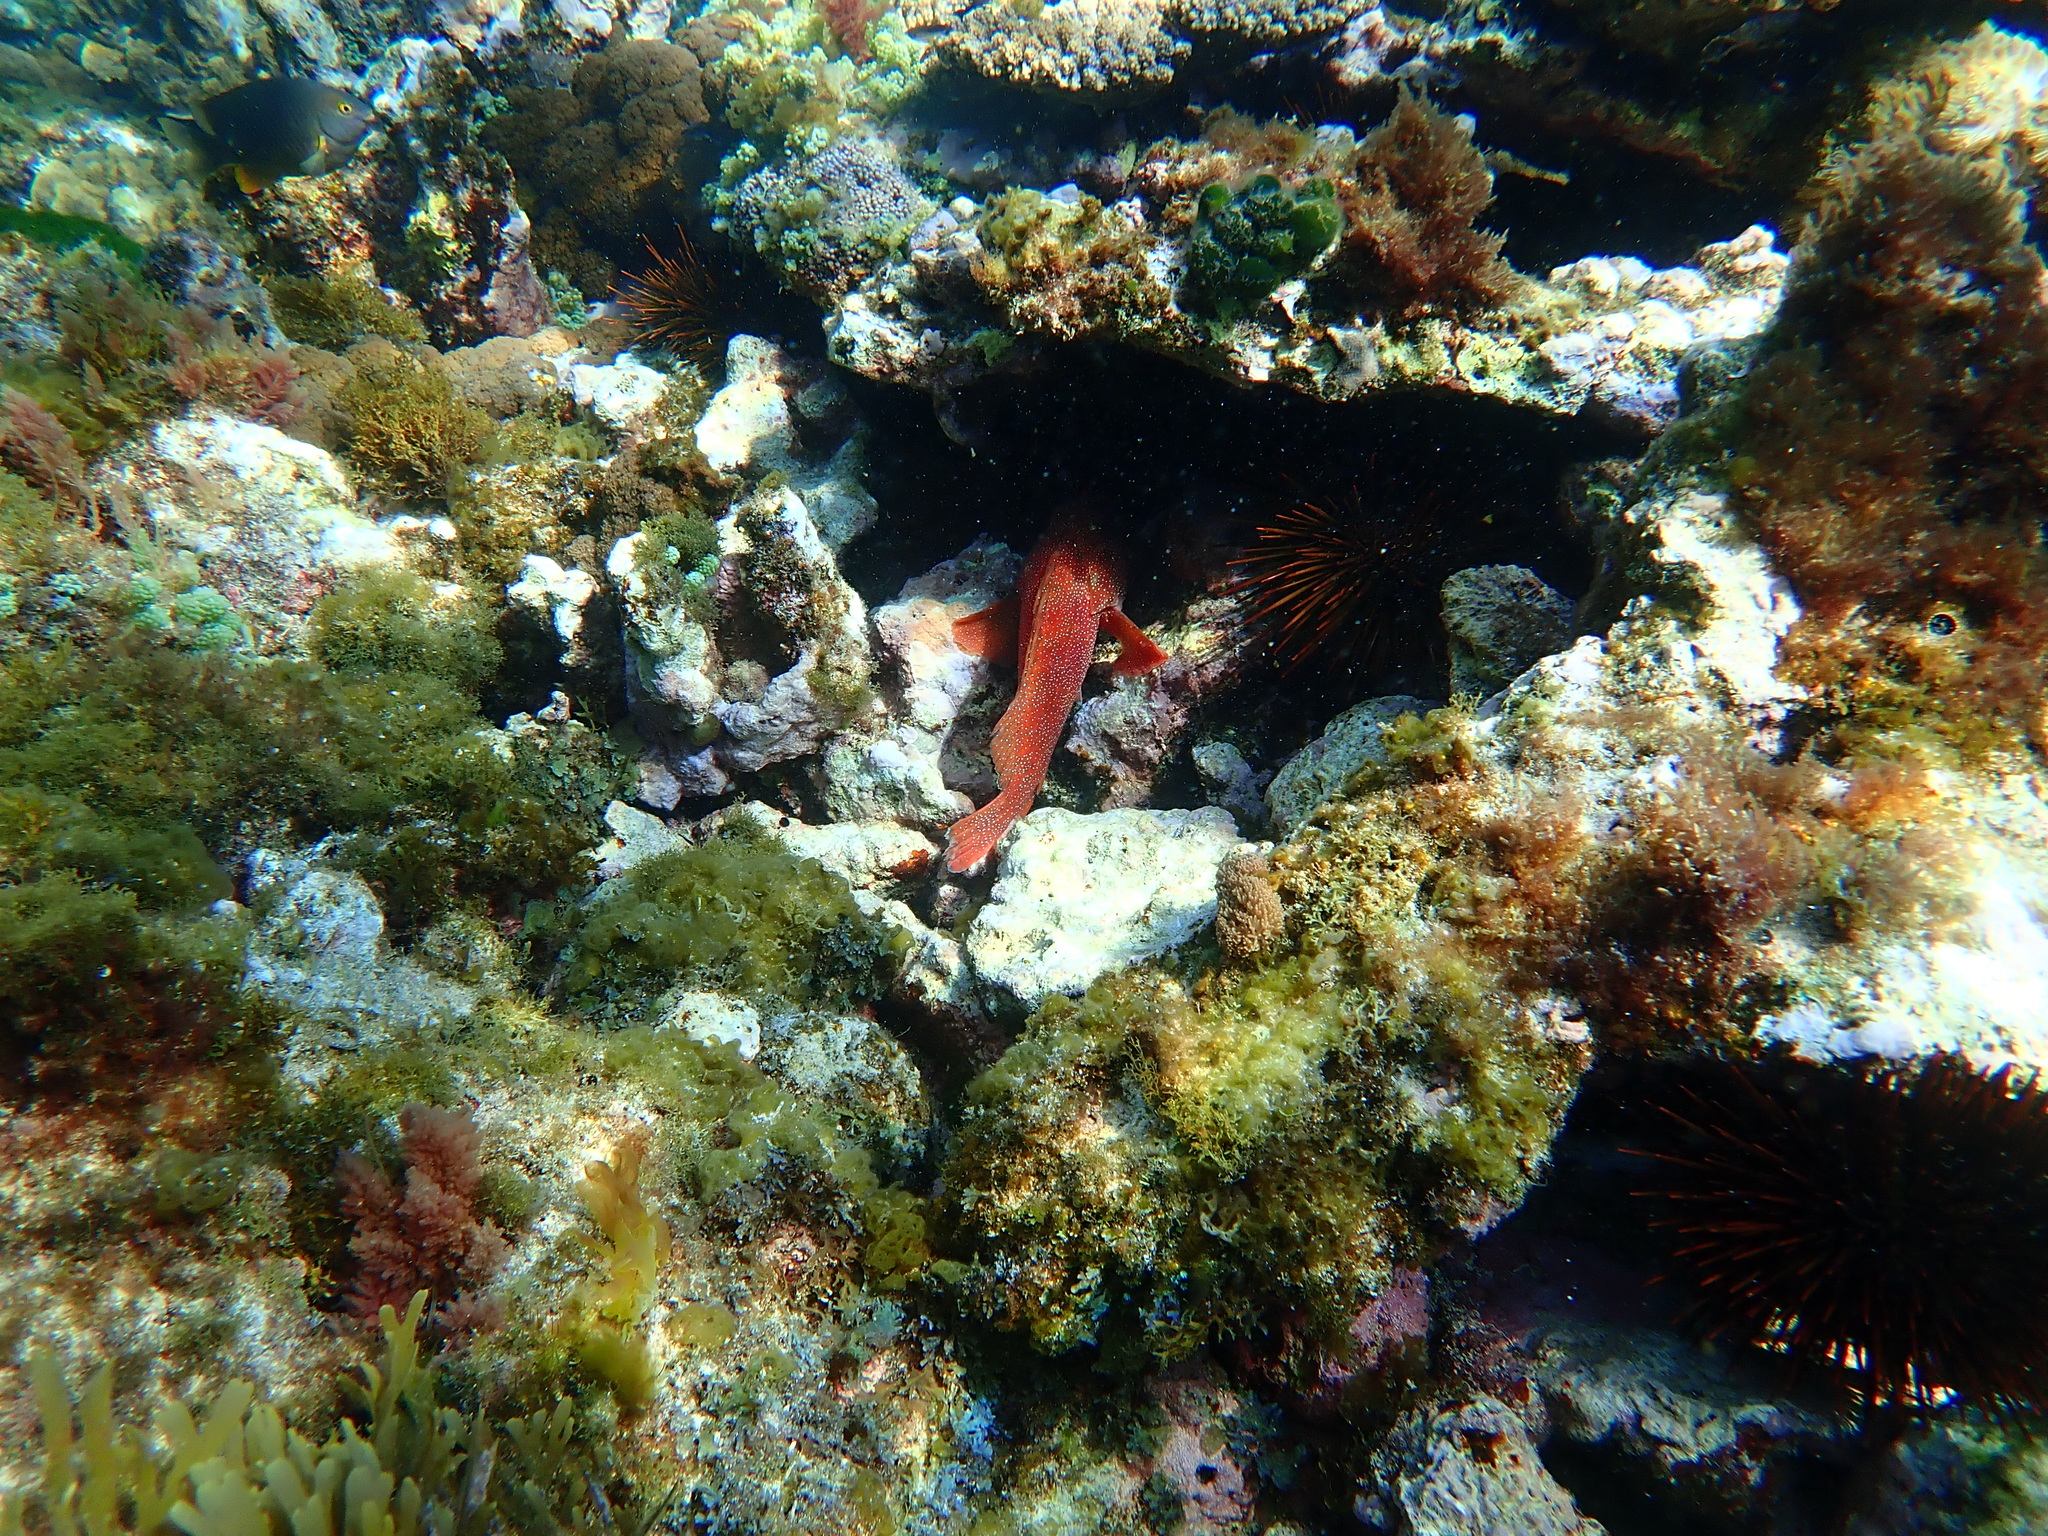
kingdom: Animalia
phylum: Chordata
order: Perciformes
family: Serranidae
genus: Cephalopholis
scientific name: Cephalopholis miniata
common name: Coral hind
